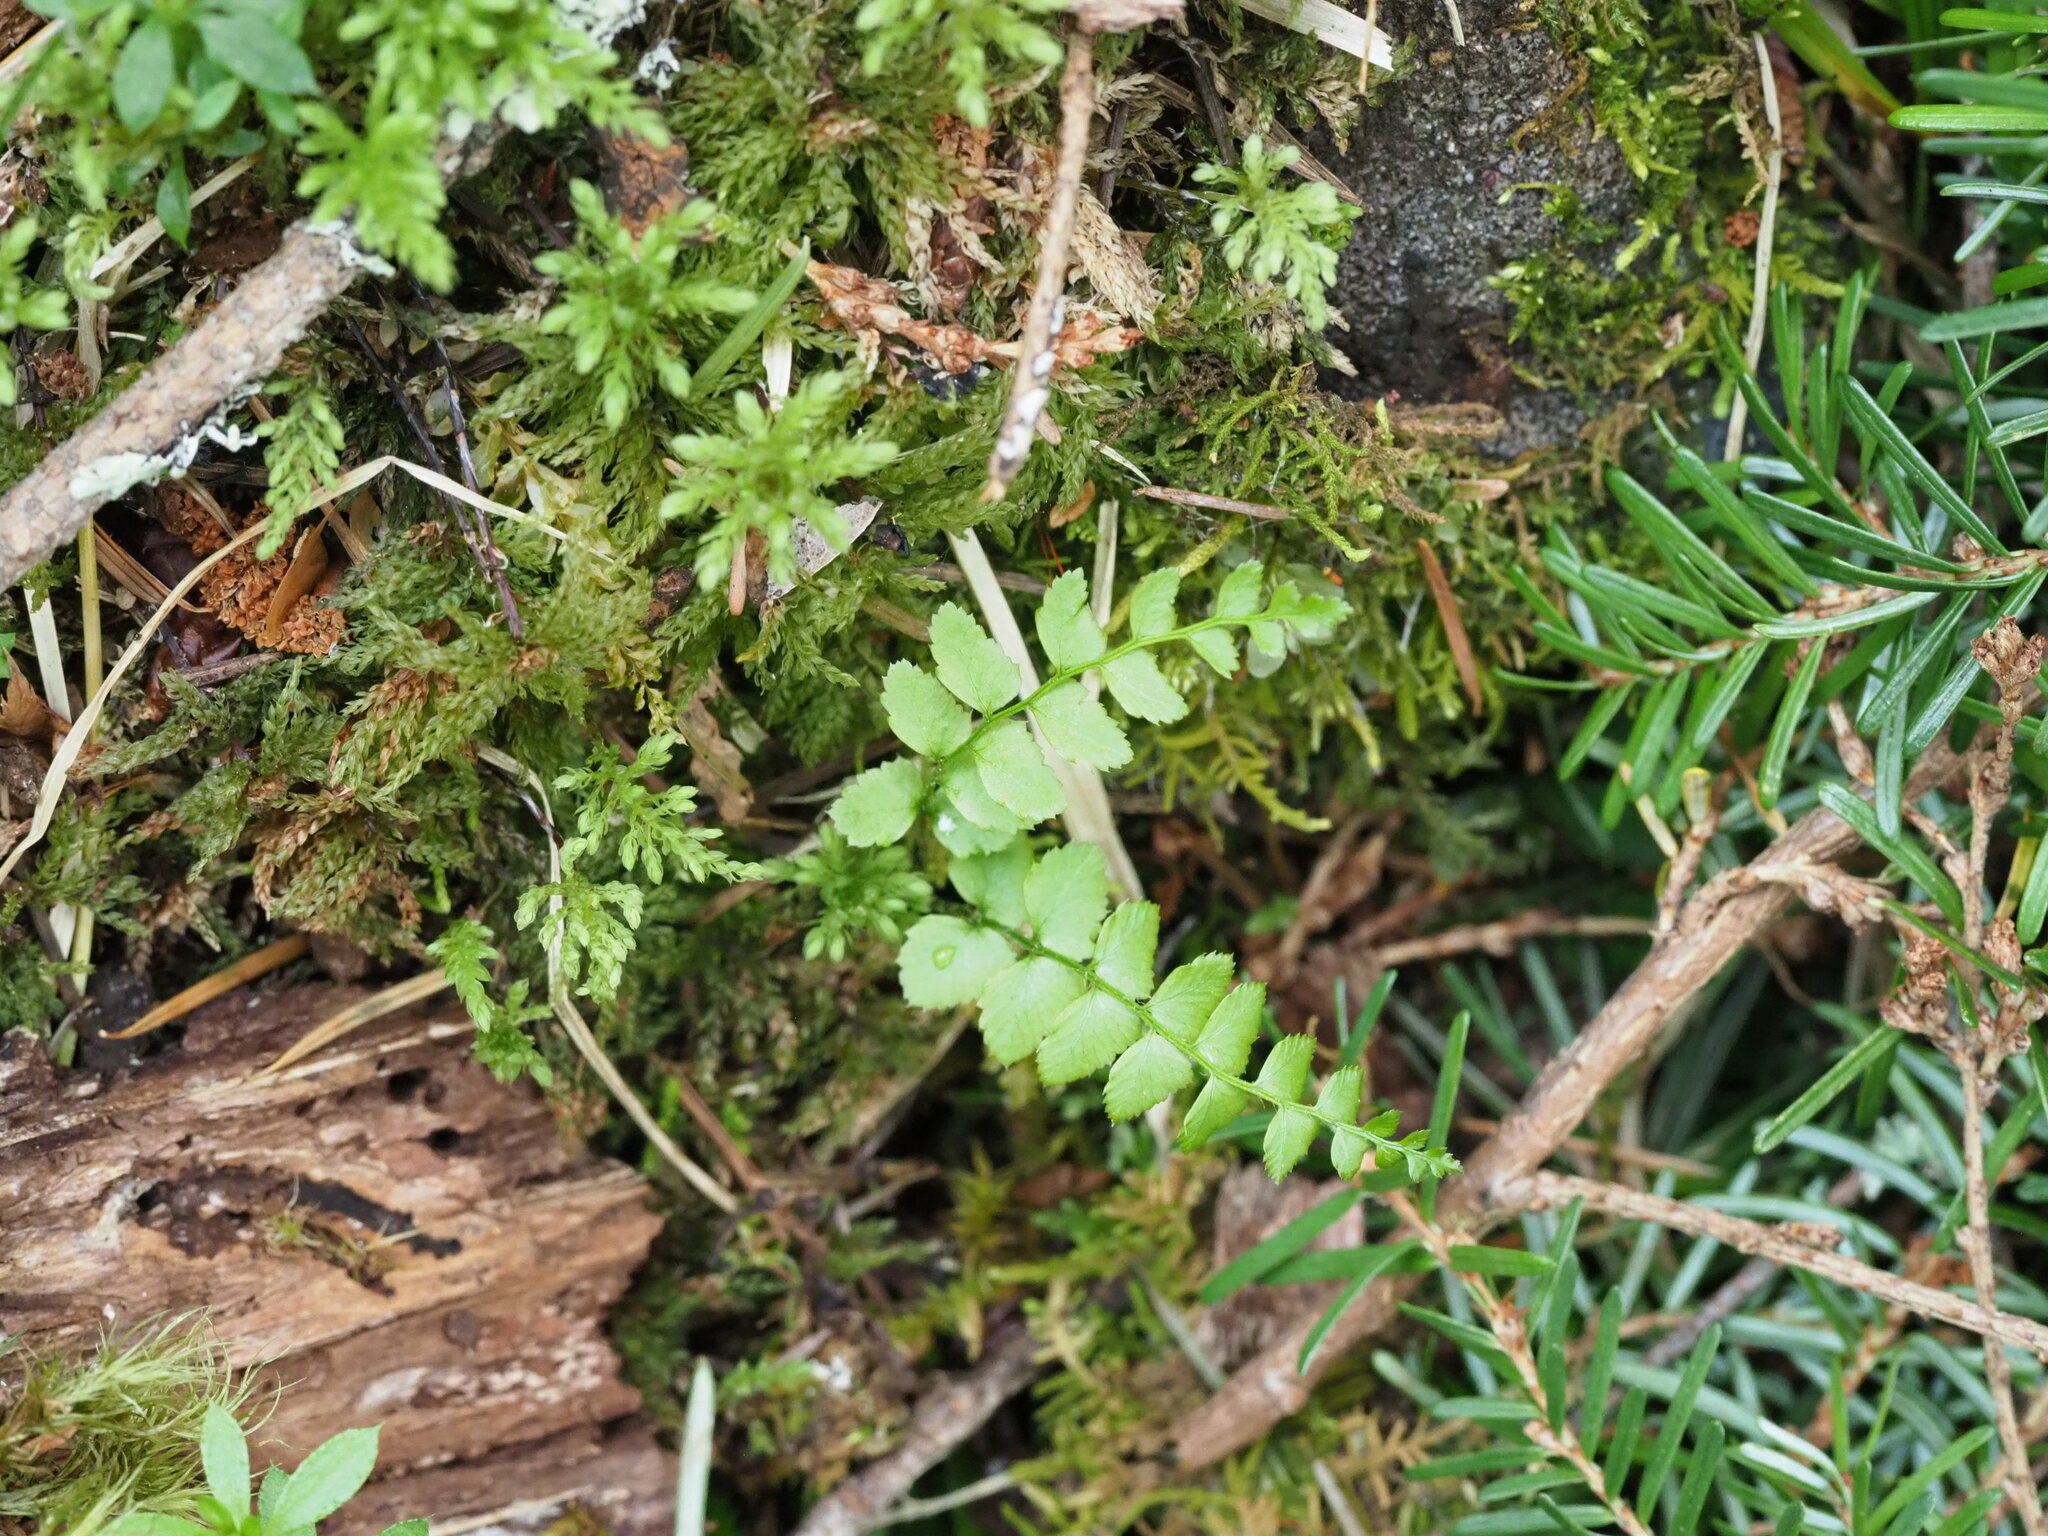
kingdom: Plantae
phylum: Tracheophyta
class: Polypodiopsida
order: Polypodiales
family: Dryopteridaceae
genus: Polystichum
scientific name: Polystichum munitum
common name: Western sword-fern
